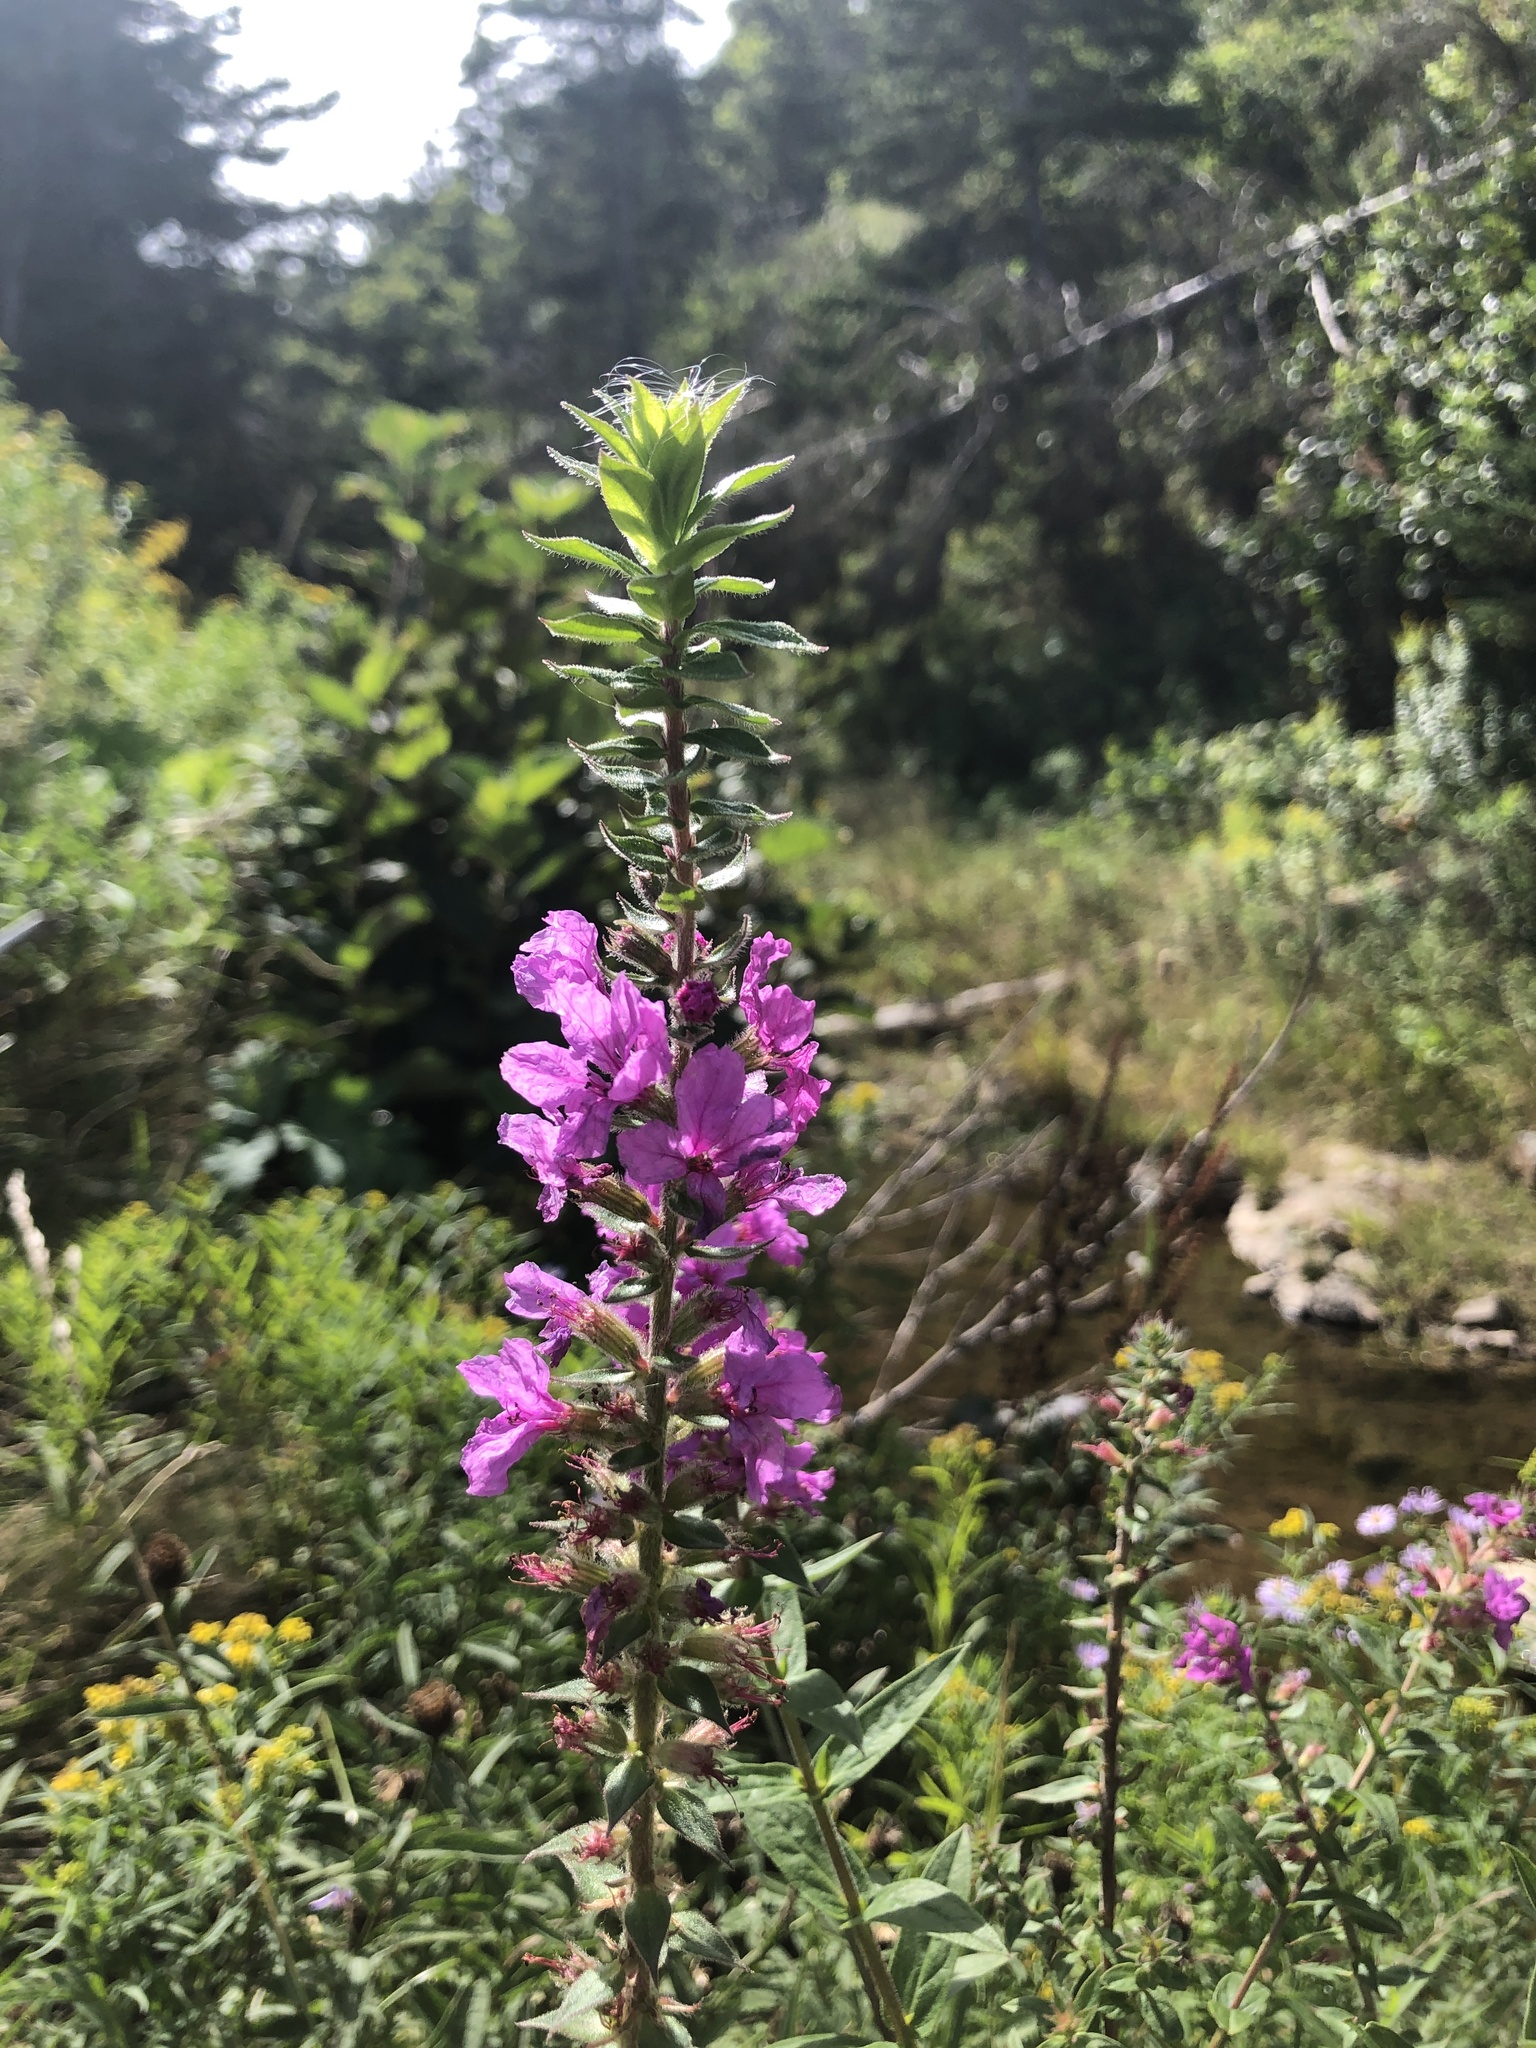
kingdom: Plantae
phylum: Tracheophyta
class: Magnoliopsida
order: Myrtales
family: Lythraceae
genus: Lythrum
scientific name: Lythrum salicaria
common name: Purple loosestrife
